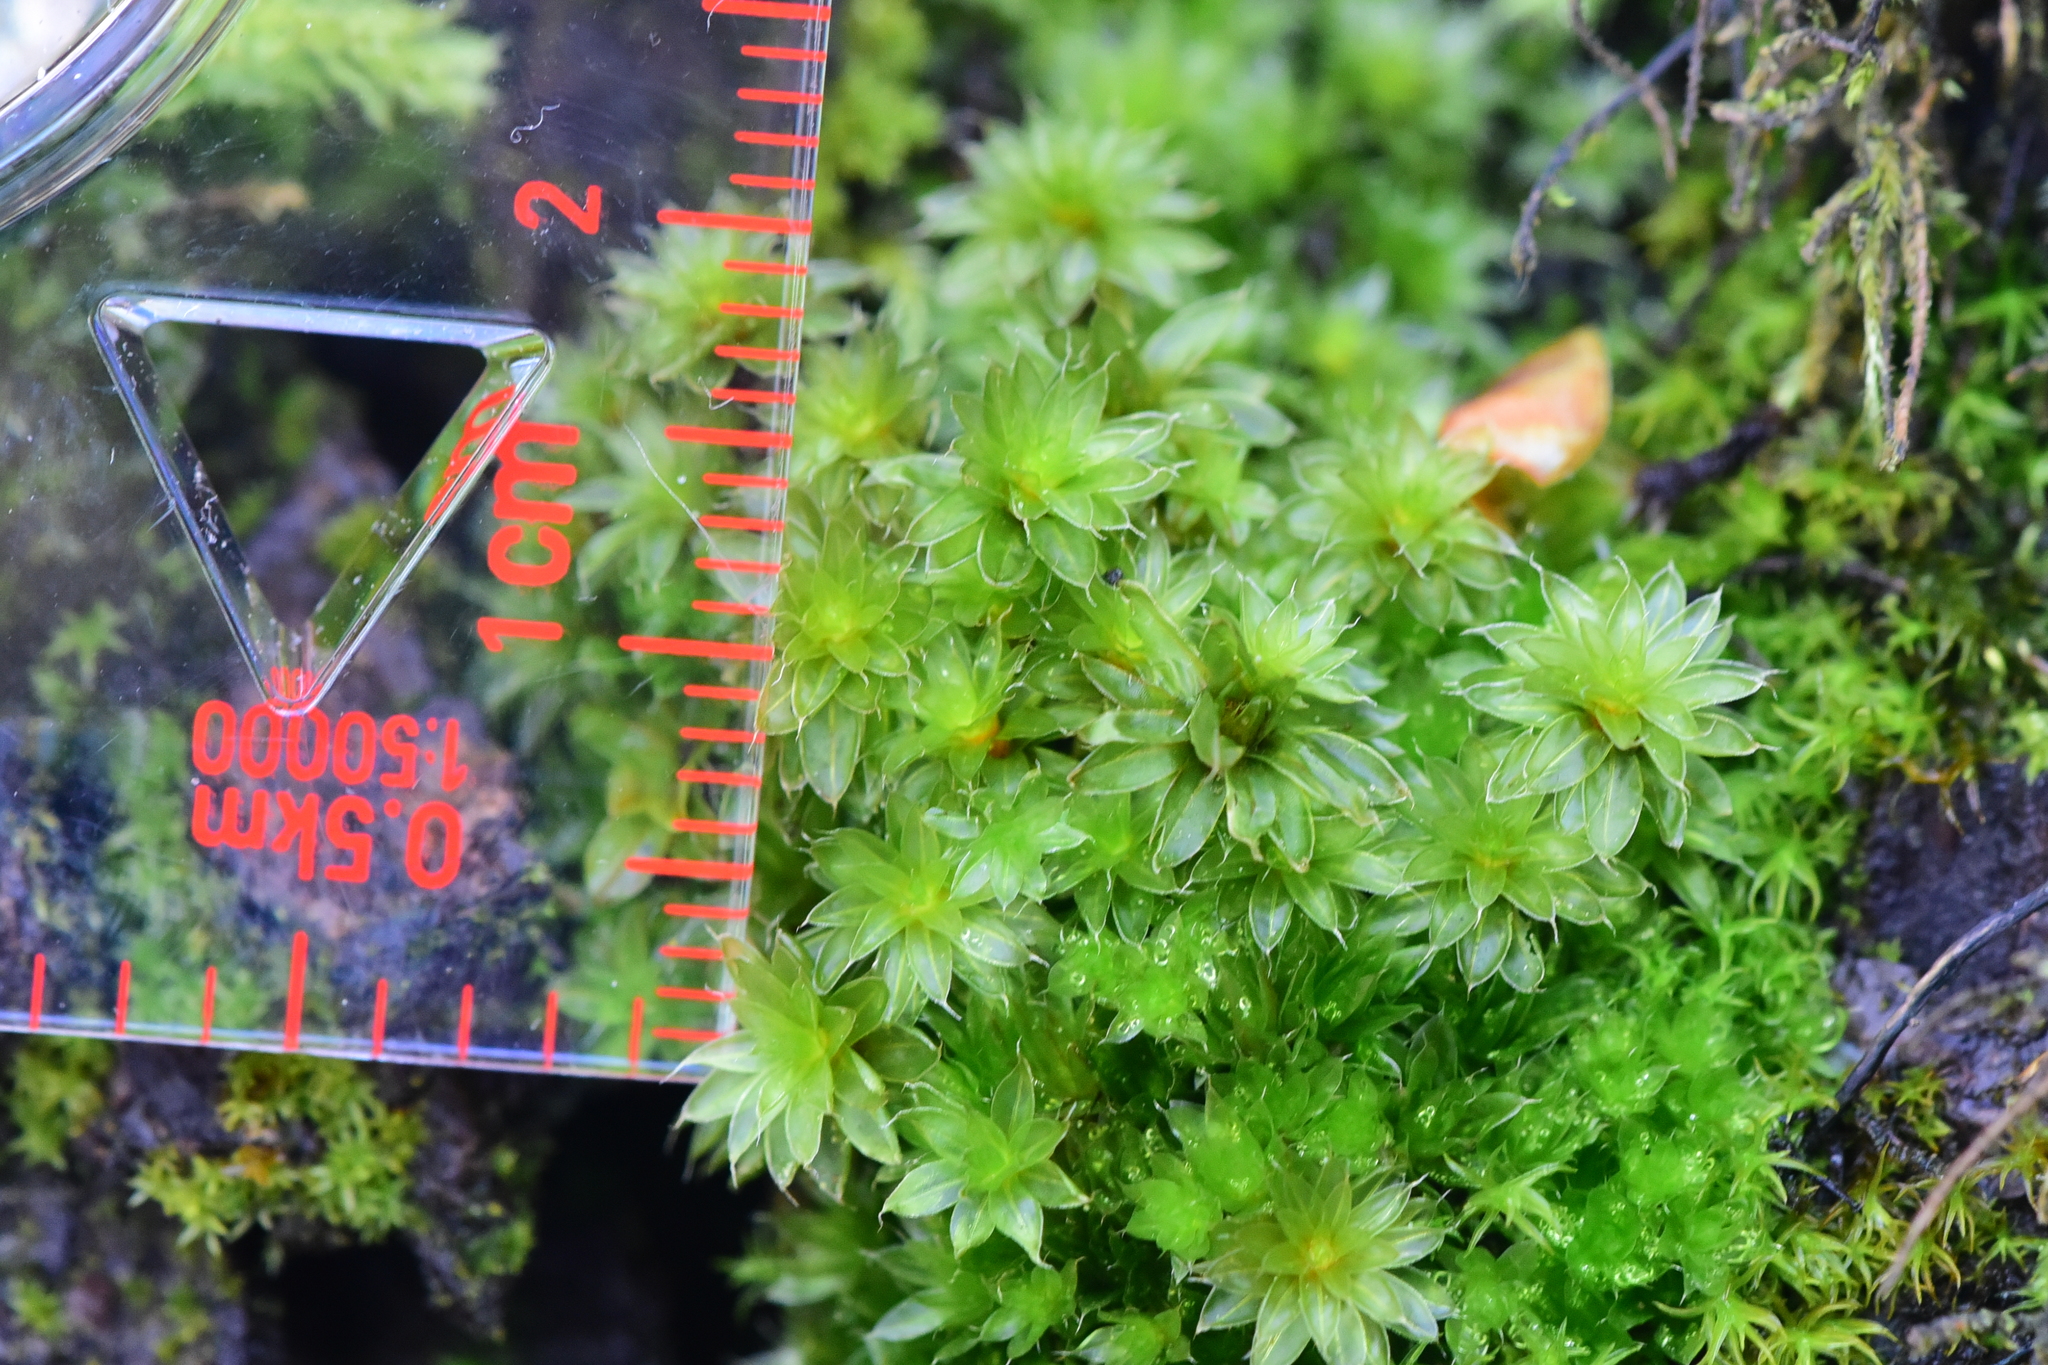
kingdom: Plantae
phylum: Bryophyta
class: Bryopsida
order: Bryales
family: Bryaceae
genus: Rosulabryum
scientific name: Rosulabryum canariense
